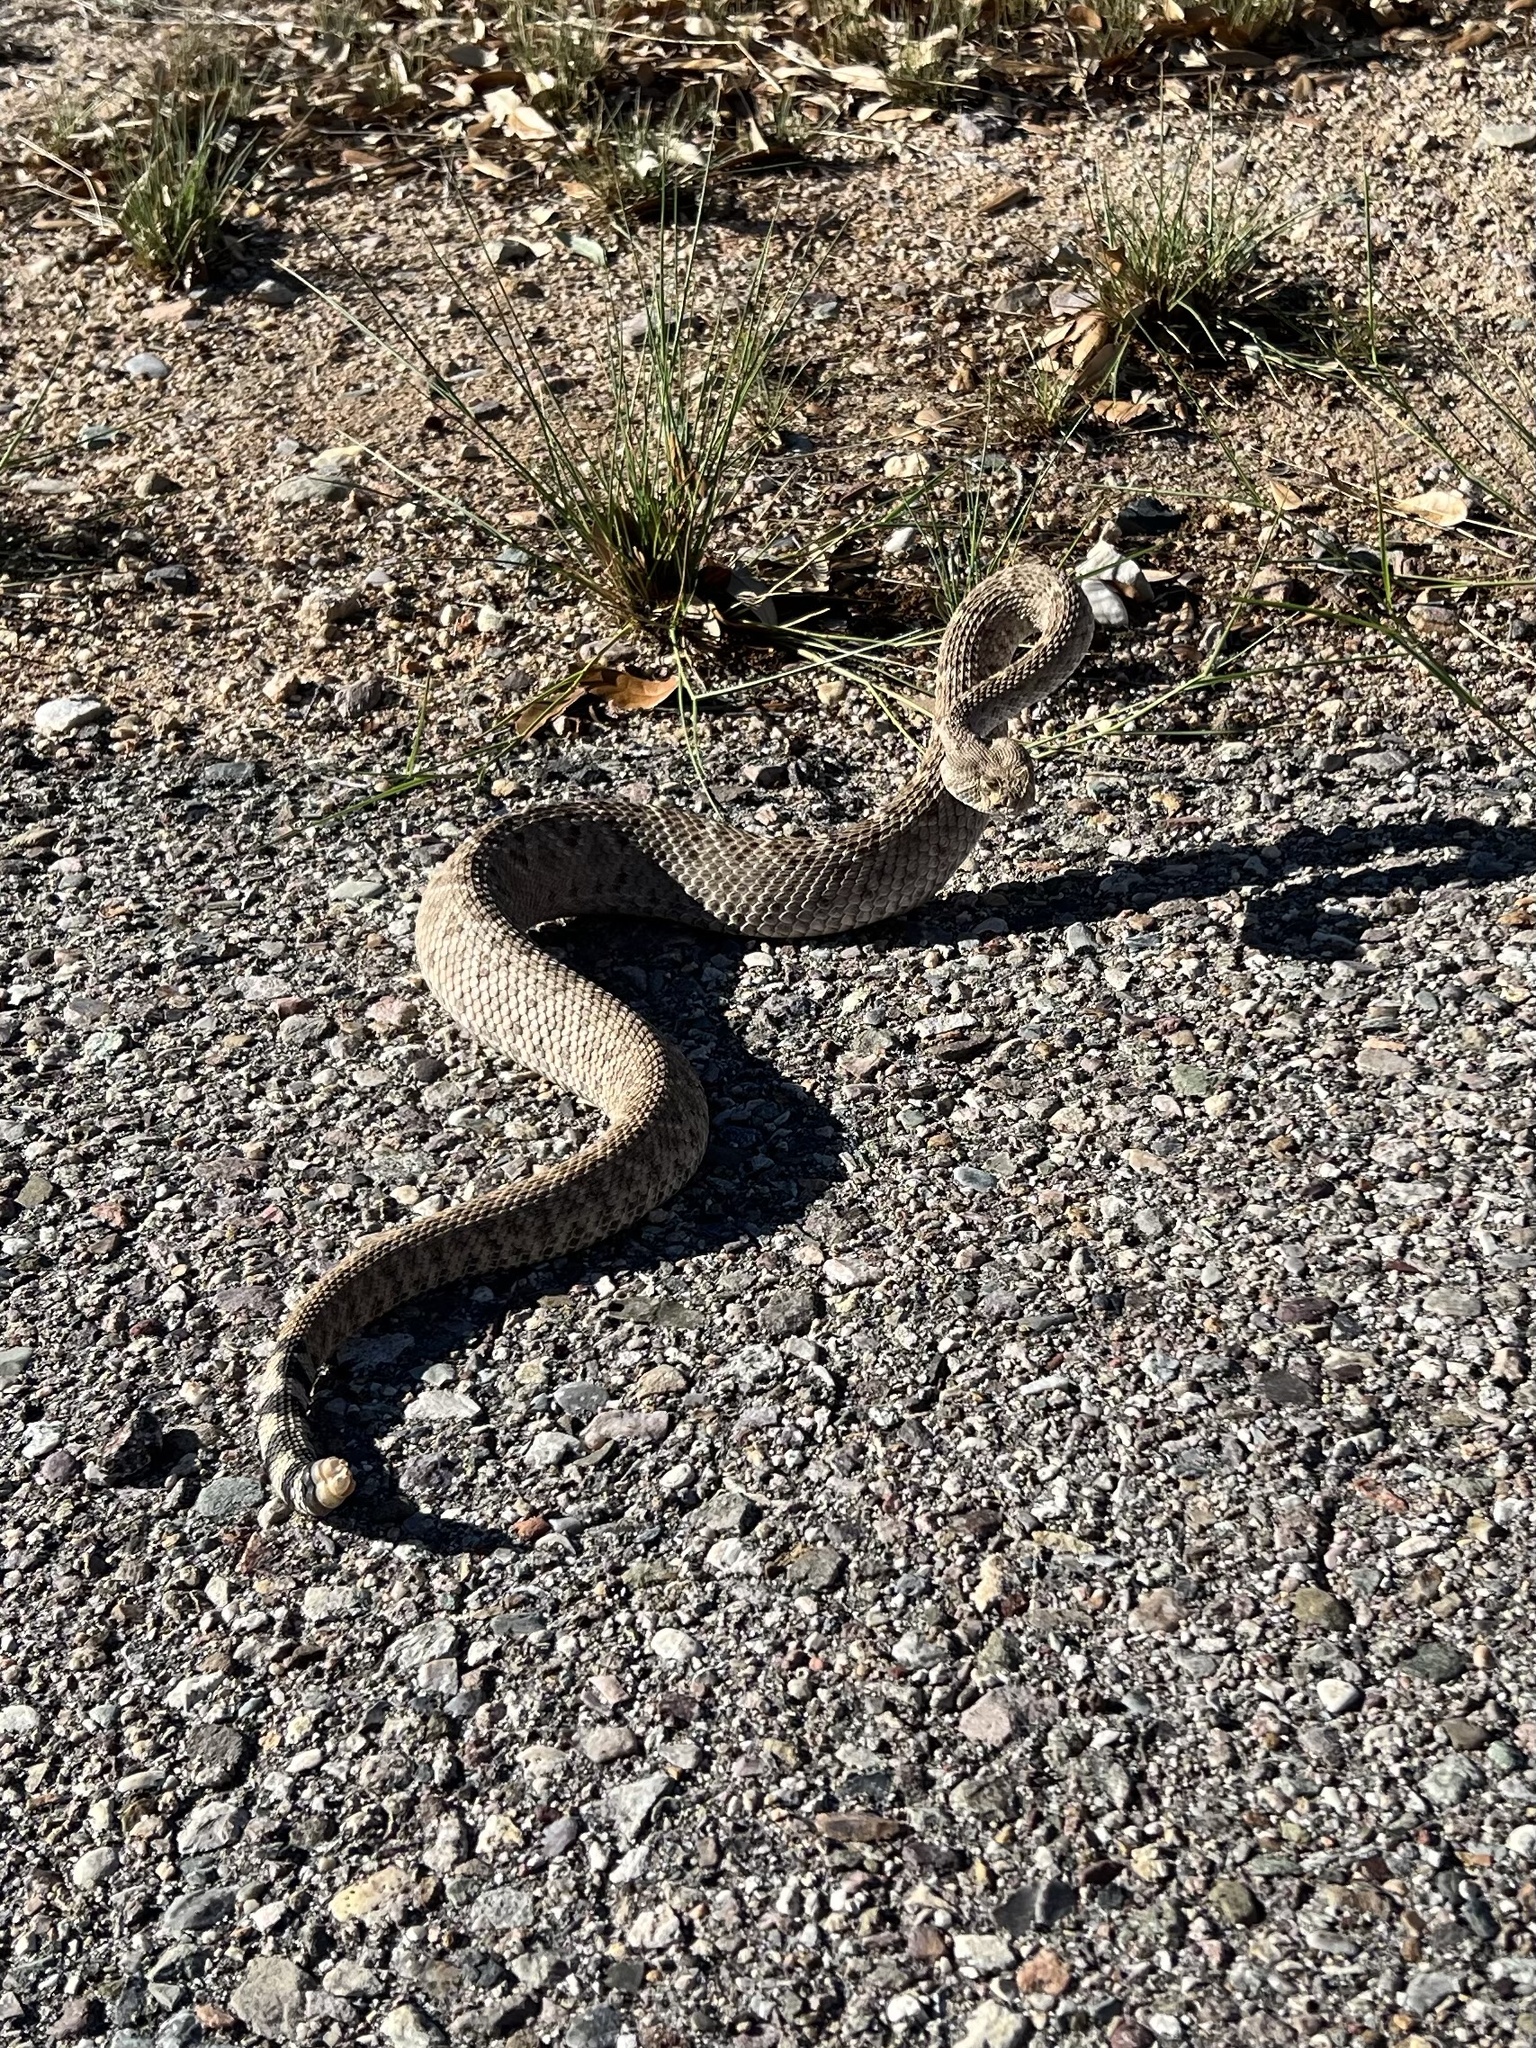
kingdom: Animalia
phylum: Chordata
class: Squamata
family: Viperidae
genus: Crotalus
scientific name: Crotalus atrox
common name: Western diamond-backed rattlesnake
